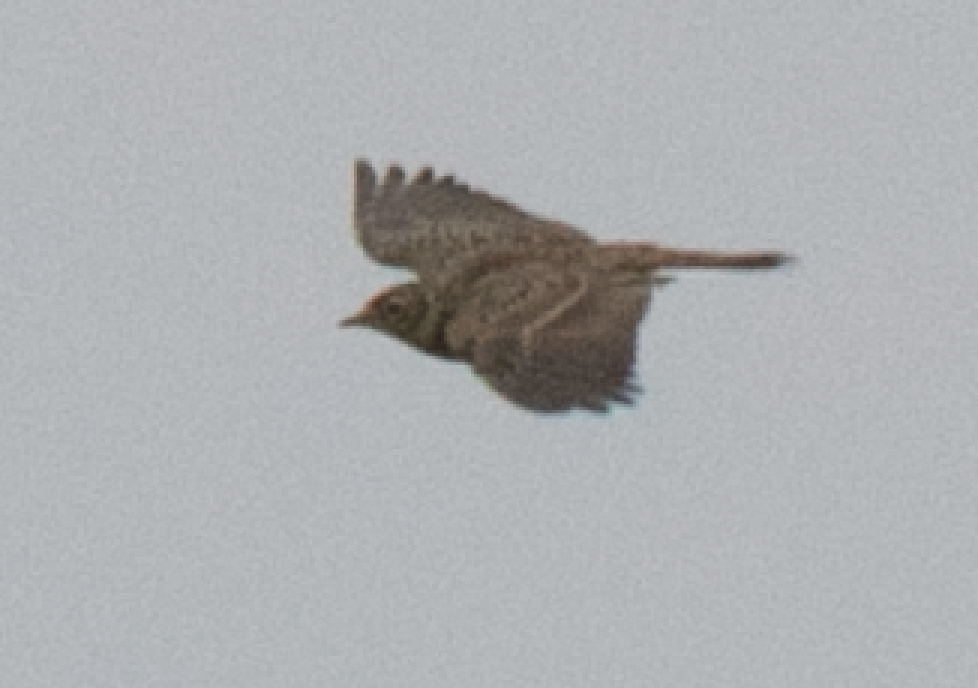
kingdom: Animalia
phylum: Chordata
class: Aves
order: Passeriformes
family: Alaudidae
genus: Alauda
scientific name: Alauda arvensis
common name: Eurasian skylark
